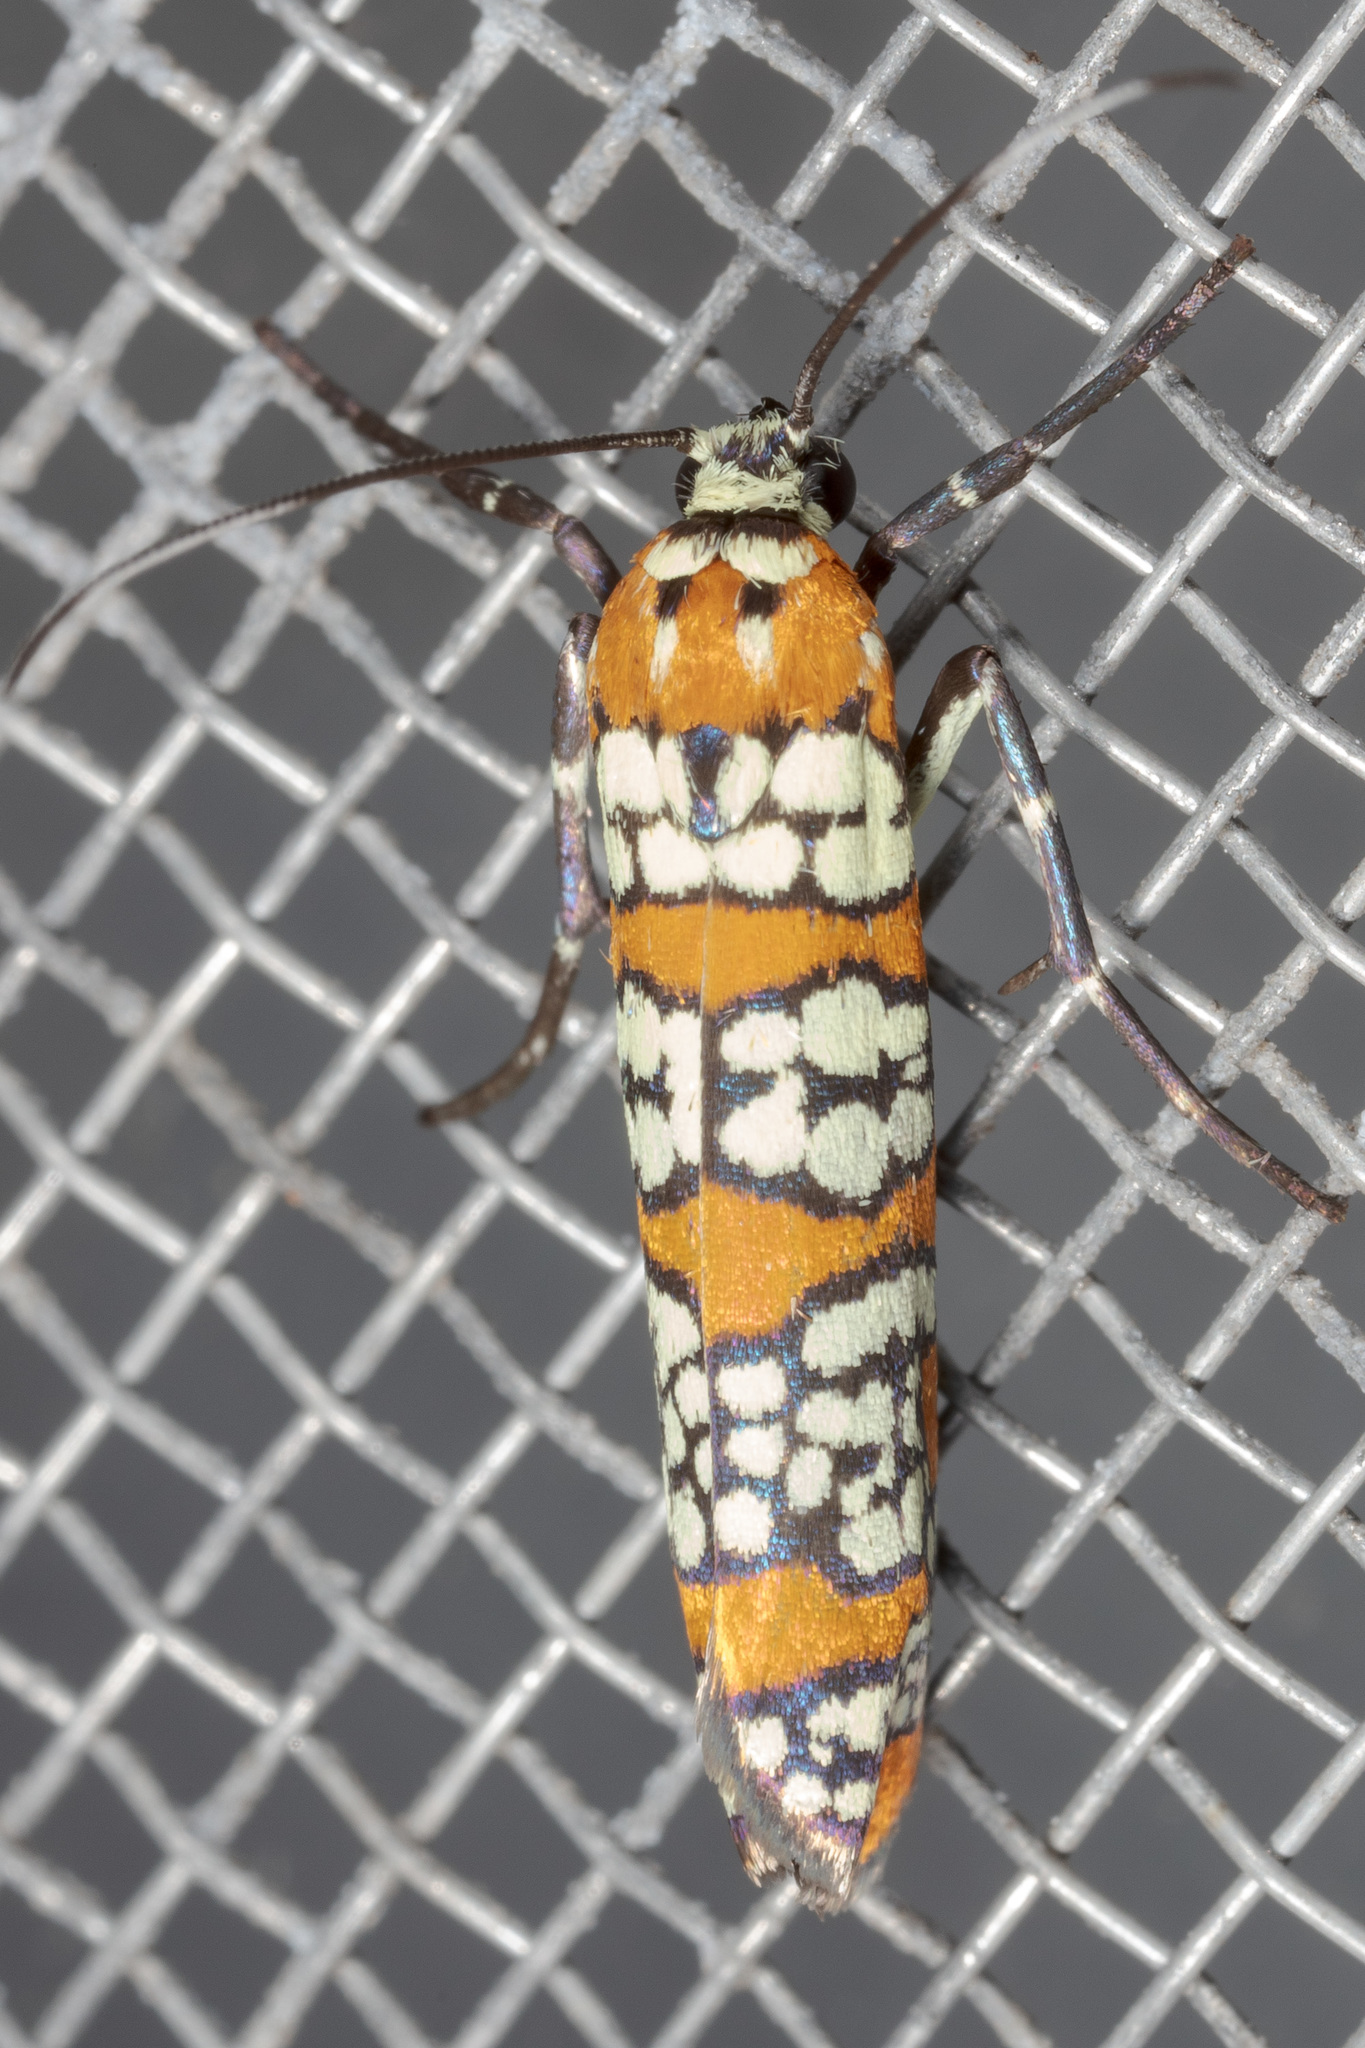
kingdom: Animalia
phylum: Arthropoda
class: Insecta
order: Lepidoptera
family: Attevidae
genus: Atteva
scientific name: Atteva punctella
